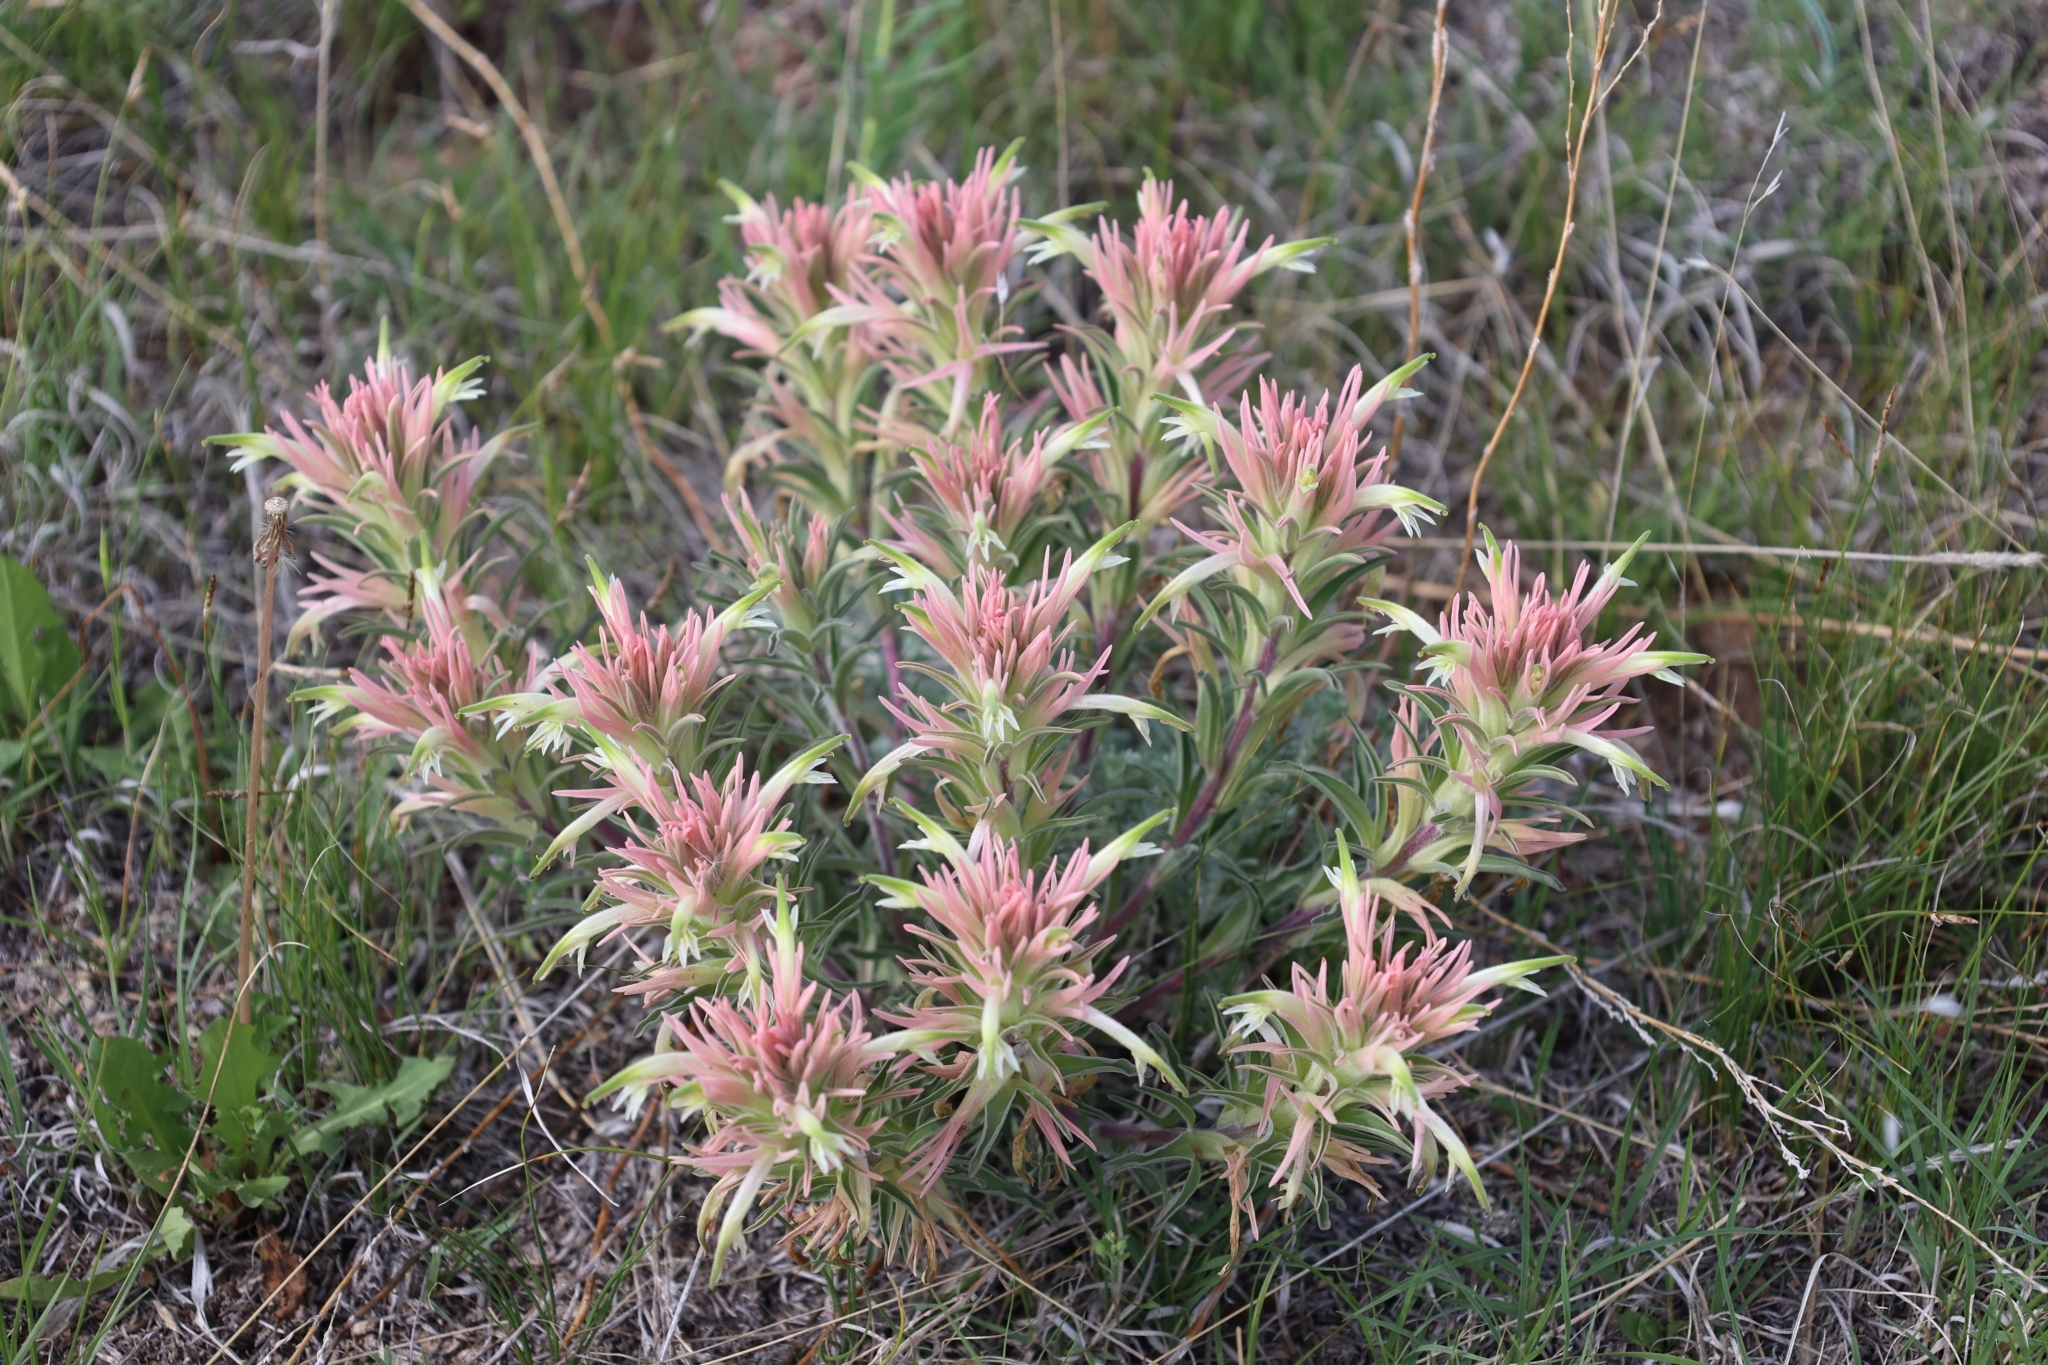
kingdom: Plantae
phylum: Tracheophyta
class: Magnoliopsida
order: Lamiales
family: Orobanchaceae
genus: Castilleja
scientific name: Castilleja sessiliflora
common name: Downy paintbrush
